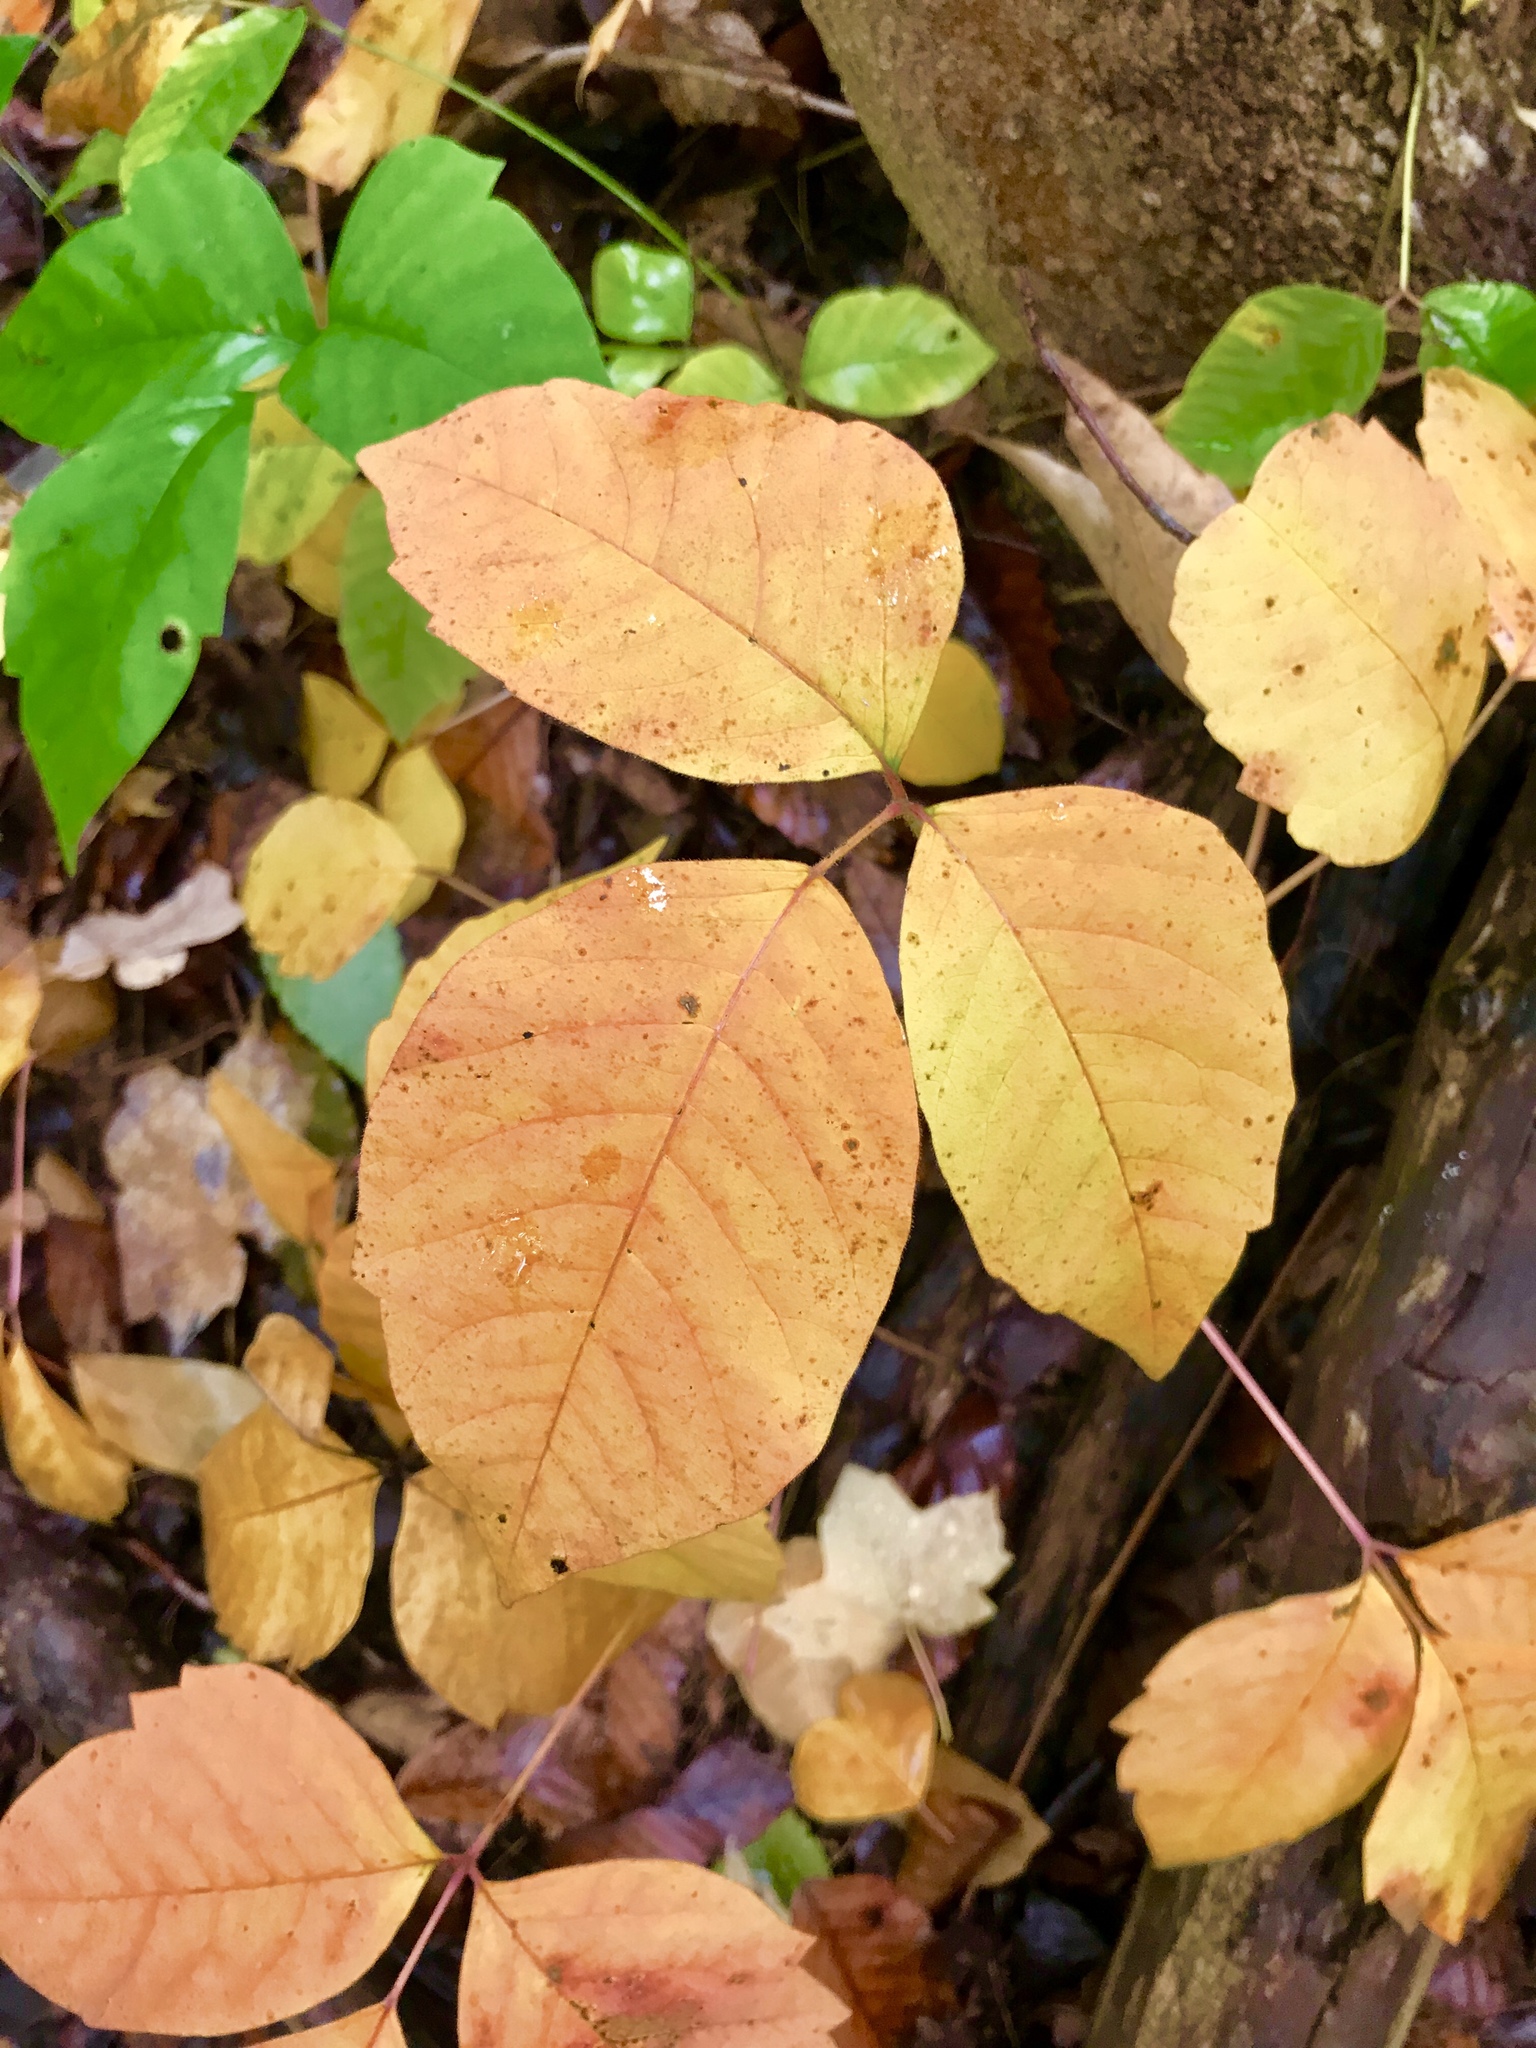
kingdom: Plantae
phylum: Tracheophyta
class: Magnoliopsida
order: Sapindales
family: Anacardiaceae
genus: Toxicodendron
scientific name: Toxicodendron radicans
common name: Poison ivy
